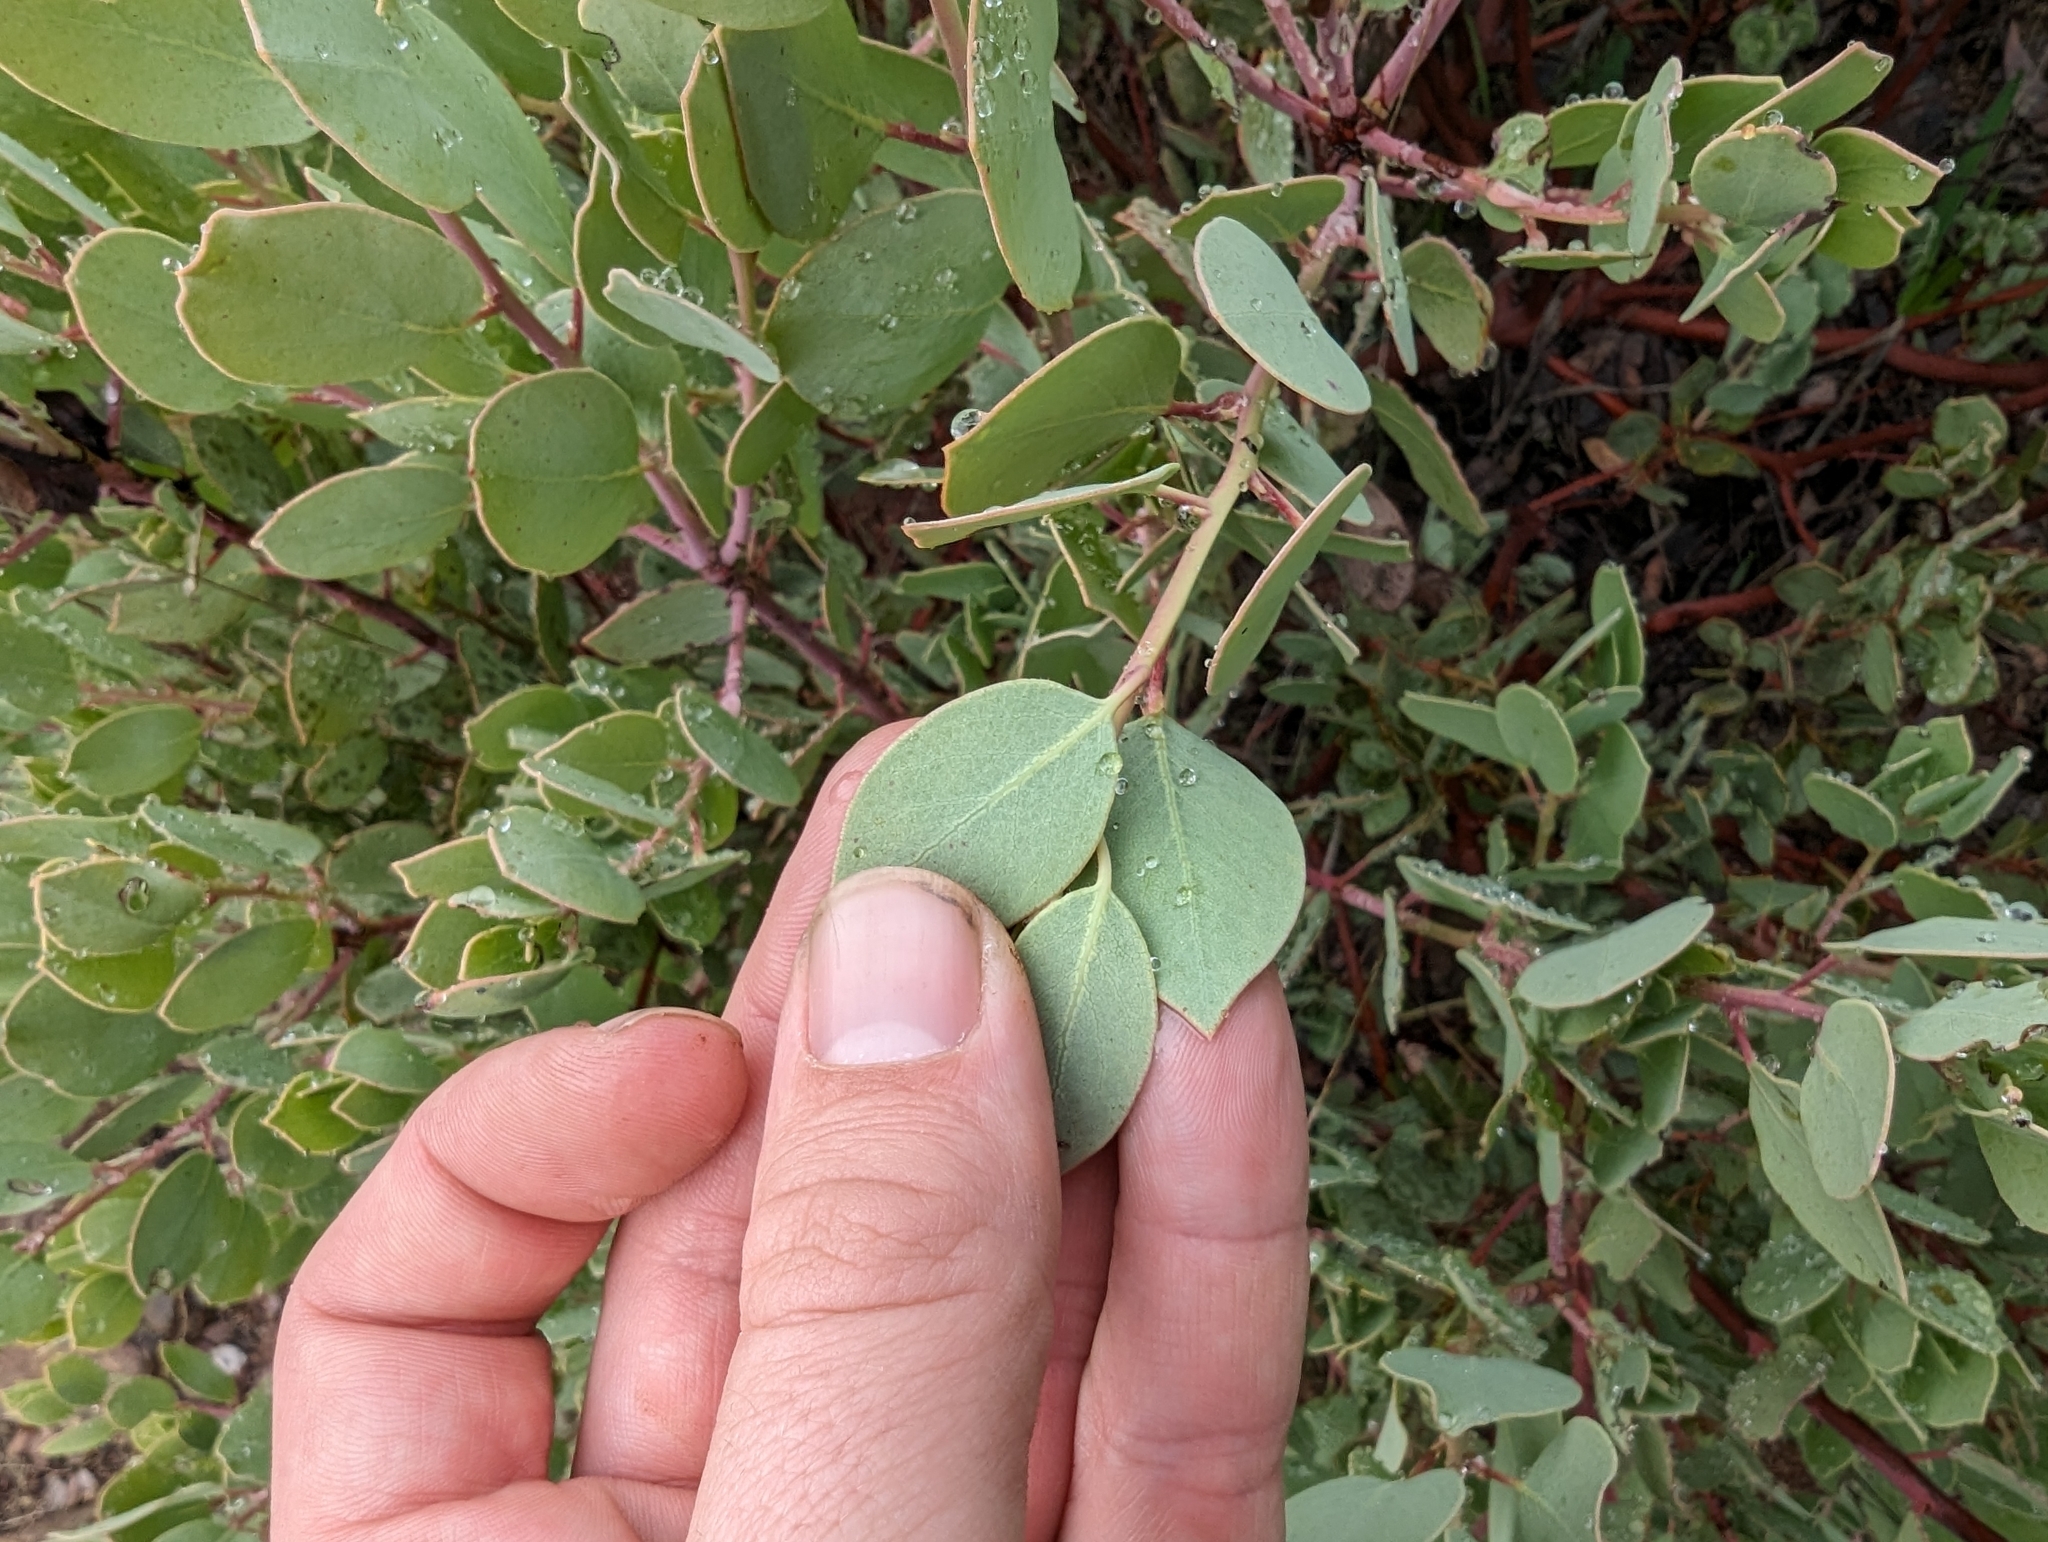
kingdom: Plantae
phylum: Tracheophyta
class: Magnoliopsida
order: Ericales
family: Ericaceae
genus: Arctostaphylos
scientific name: Arctostaphylos viscida
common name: White-leaf manzanita
